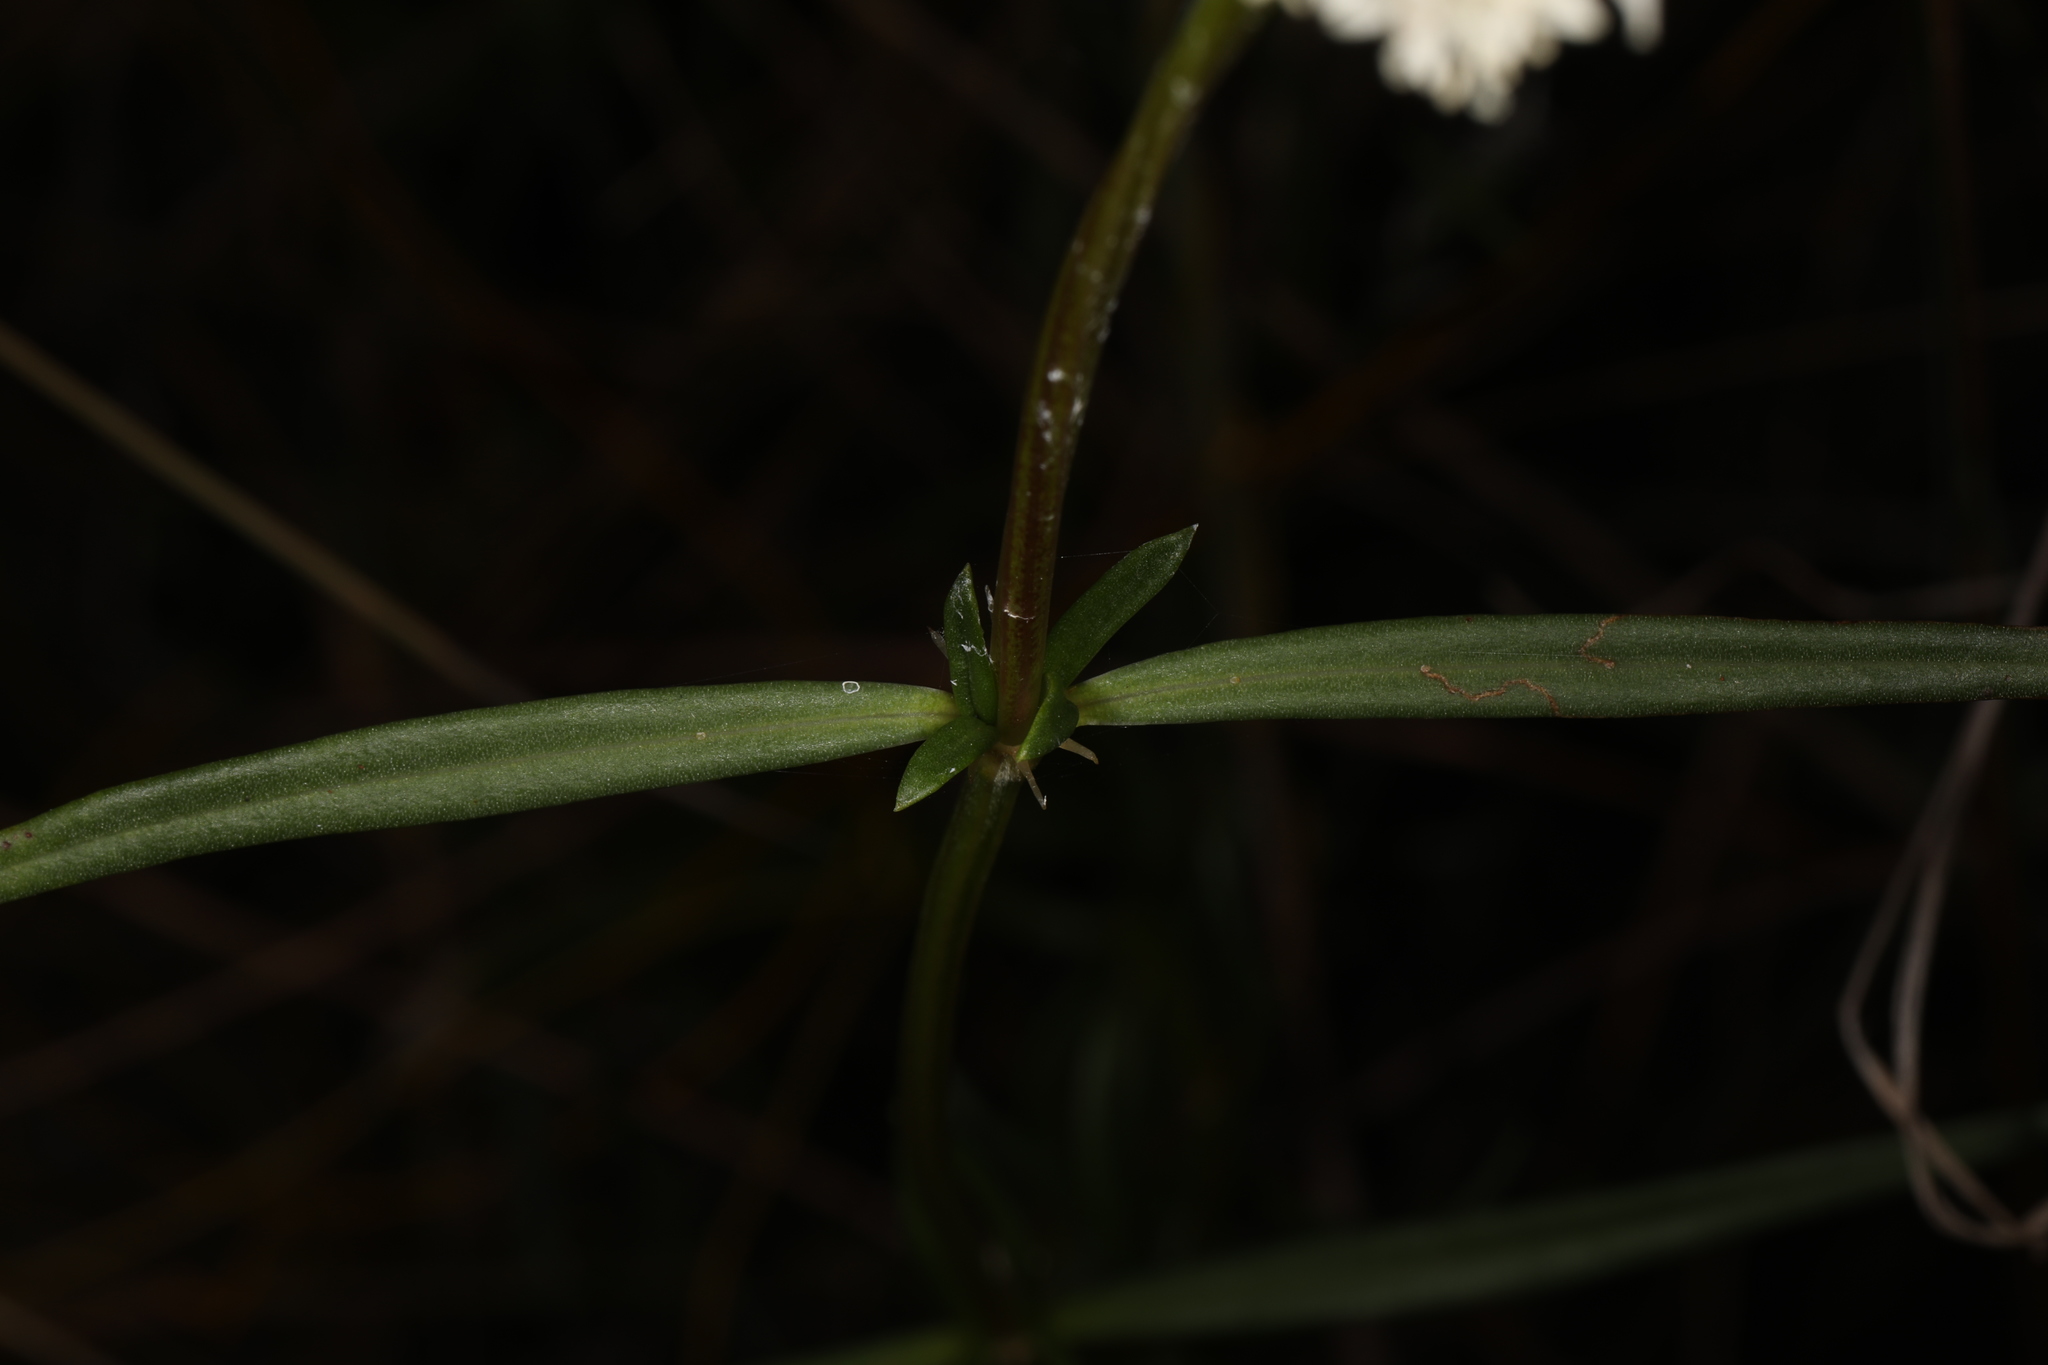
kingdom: Plantae
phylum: Tracheophyta
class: Magnoliopsida
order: Gentianales
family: Rubiaceae
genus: Spermacoce
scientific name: Spermacoce neoterminalis
